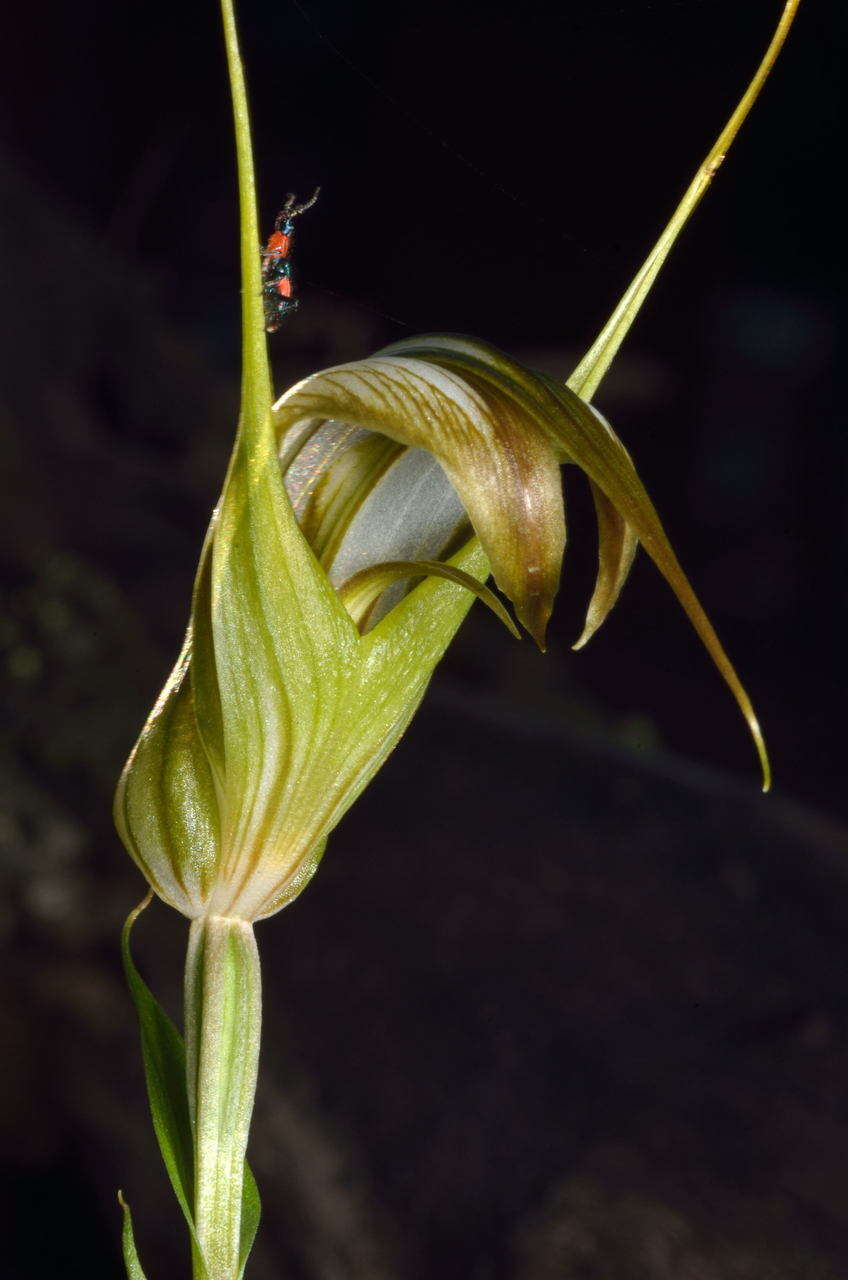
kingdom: Plantae
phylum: Tracheophyta
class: Liliopsida
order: Asparagales
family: Orchidaceae
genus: Pterostylis
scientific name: Pterostylis ampliata
